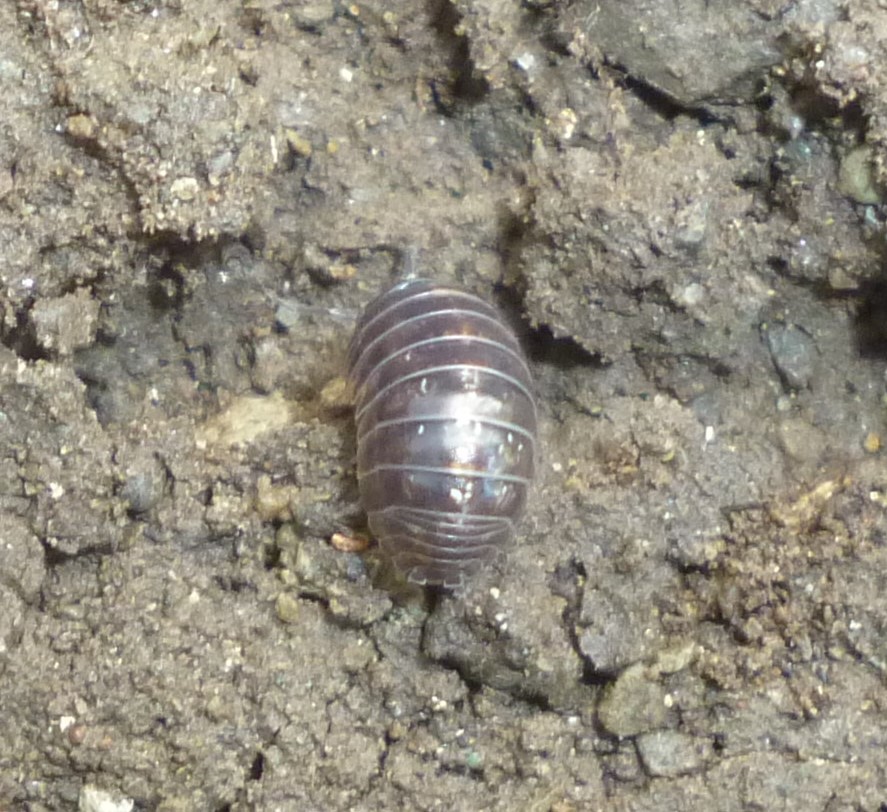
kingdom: Animalia
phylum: Arthropoda
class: Malacostraca
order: Isopoda
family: Armadillidiidae
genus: Armadillidium
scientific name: Armadillidium vulgare
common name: Common pill woodlouse
